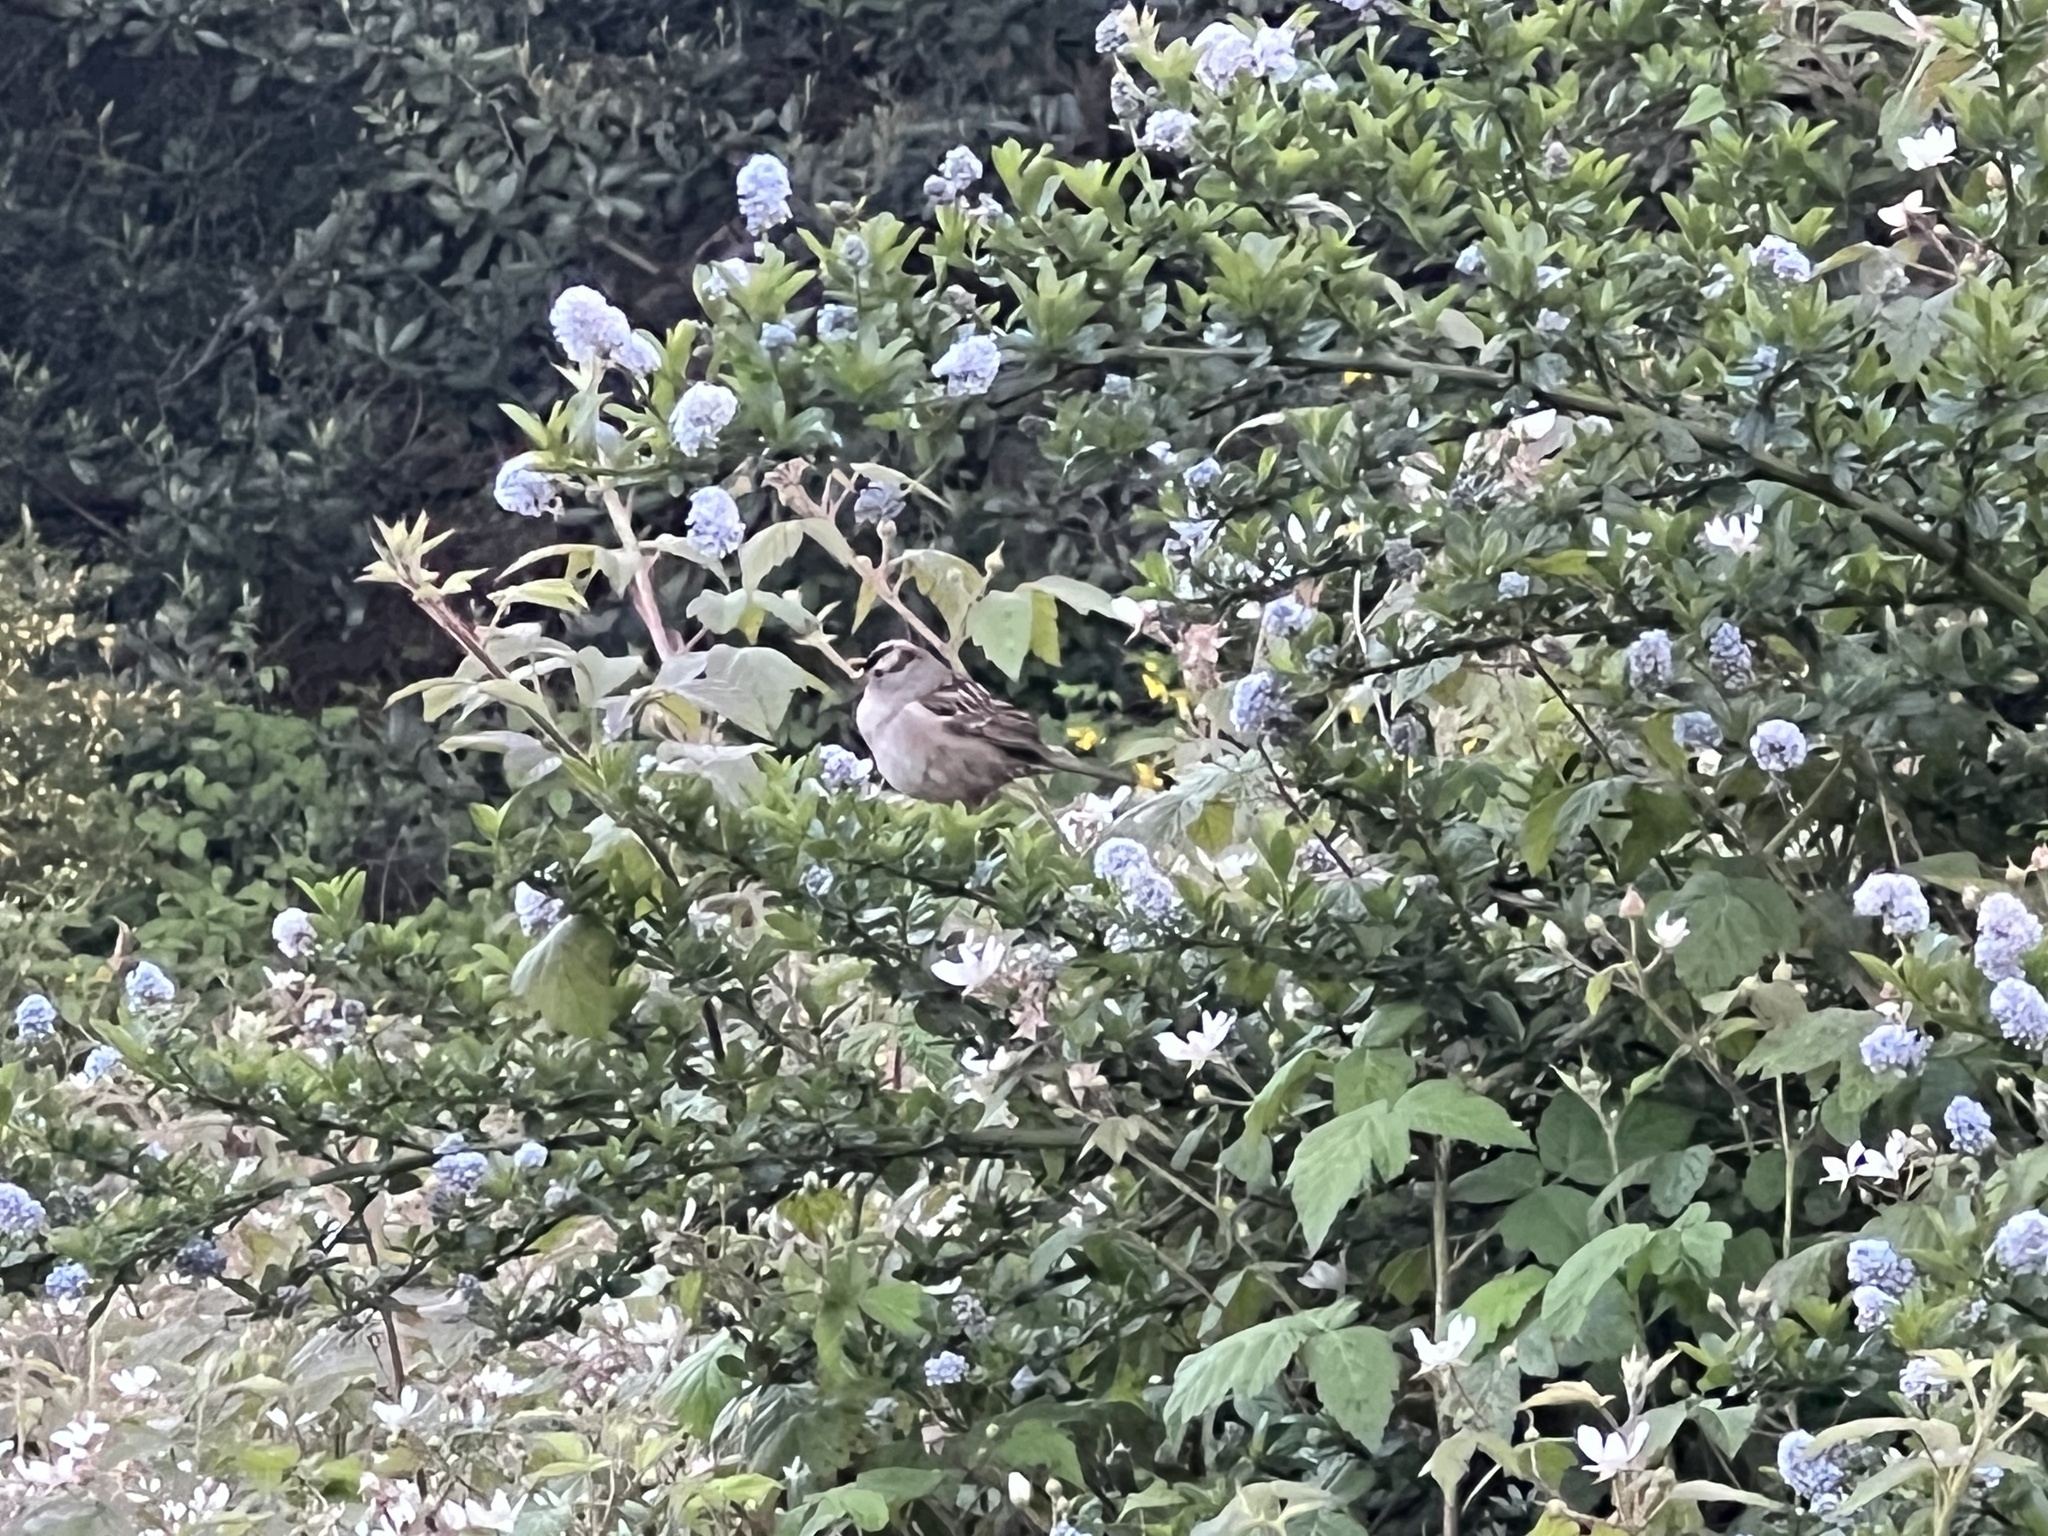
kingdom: Animalia
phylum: Chordata
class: Aves
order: Passeriformes
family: Passerellidae
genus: Zonotrichia
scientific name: Zonotrichia leucophrys
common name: White-crowned sparrow
